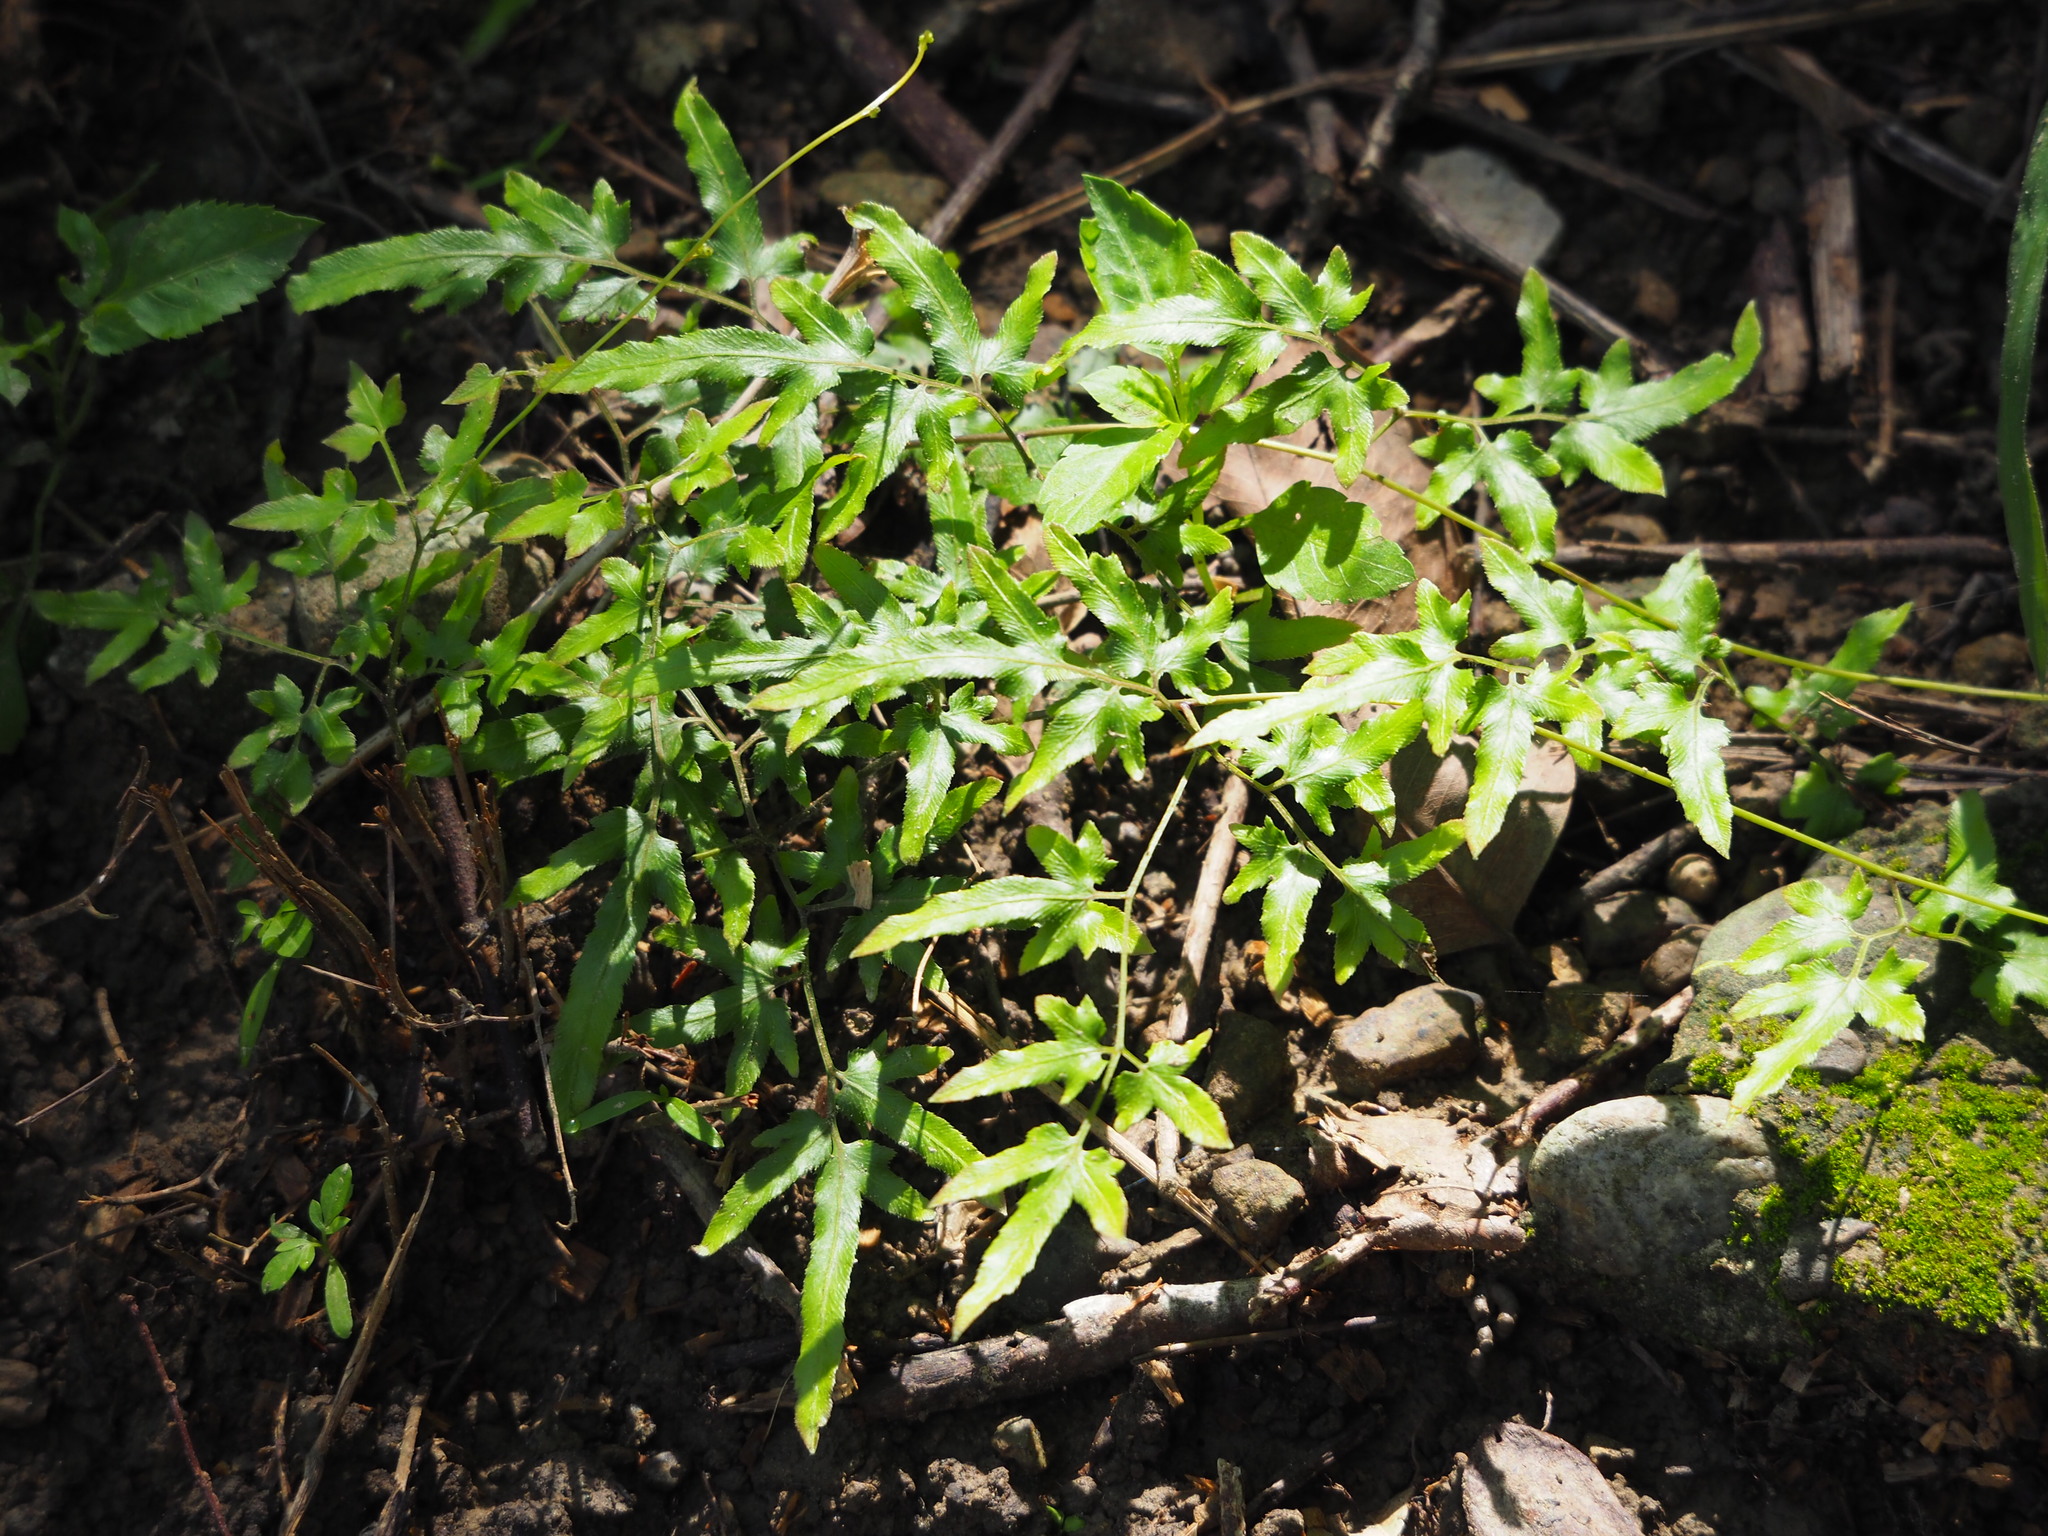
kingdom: Plantae
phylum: Tracheophyta
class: Polypodiopsida
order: Schizaeales
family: Lygodiaceae
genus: Lygodium
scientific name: Lygodium japonicum
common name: Japanese climbing fern
